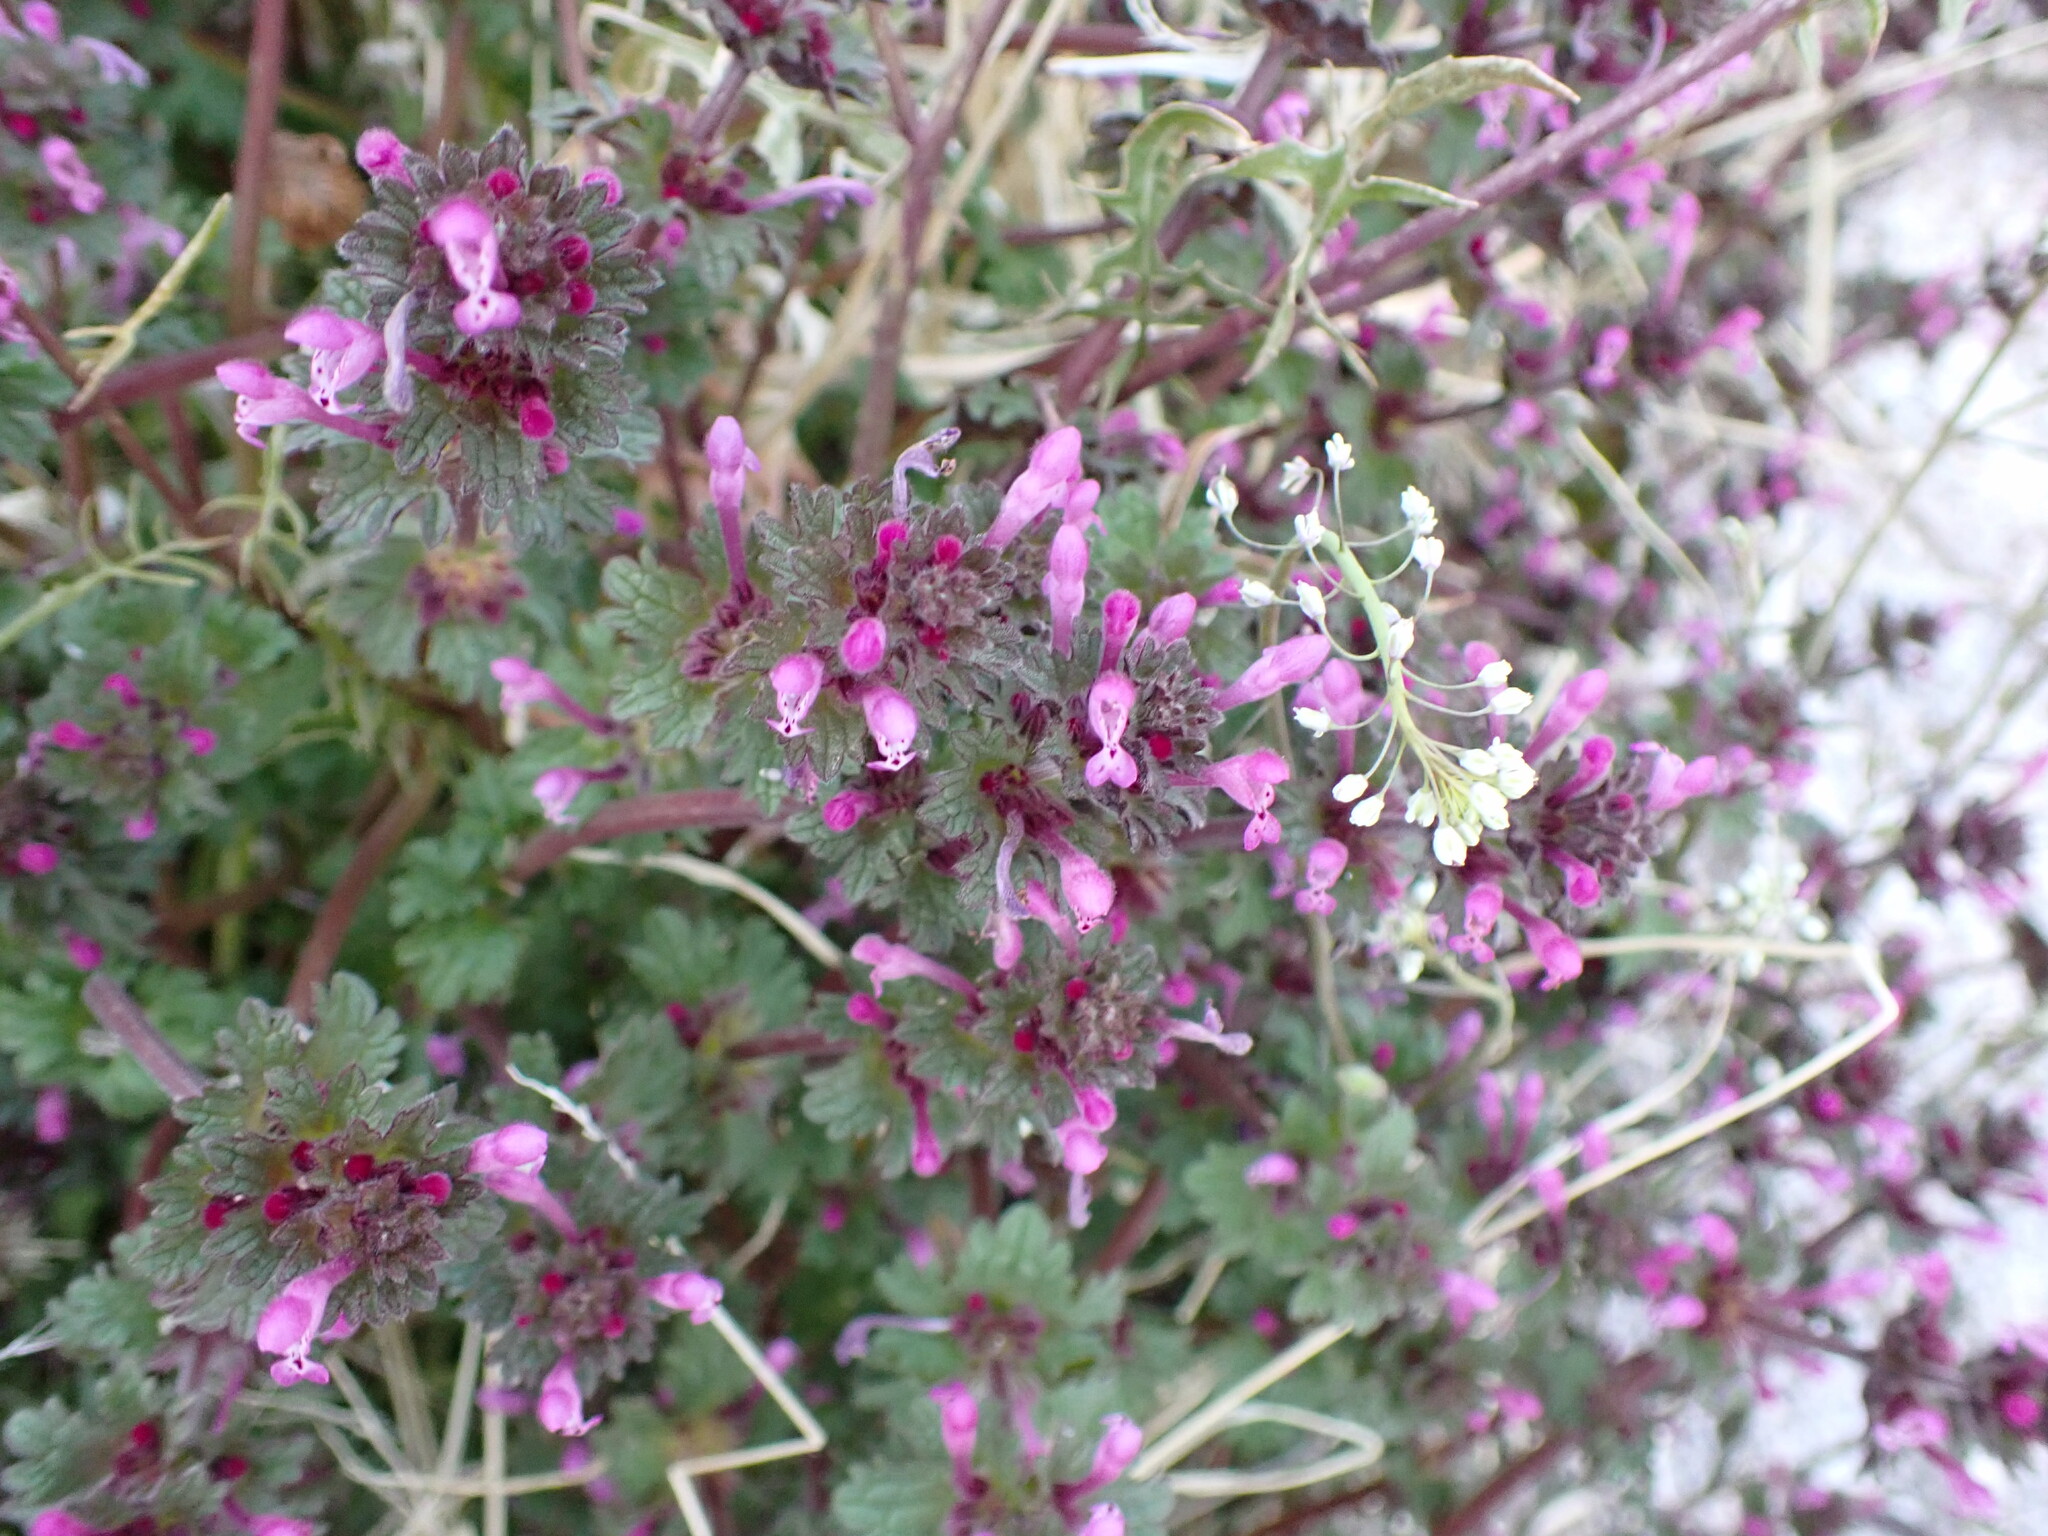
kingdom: Plantae
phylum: Tracheophyta
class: Magnoliopsida
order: Lamiales
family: Lamiaceae
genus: Lamium
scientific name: Lamium amplexicaule
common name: Henbit dead-nettle
